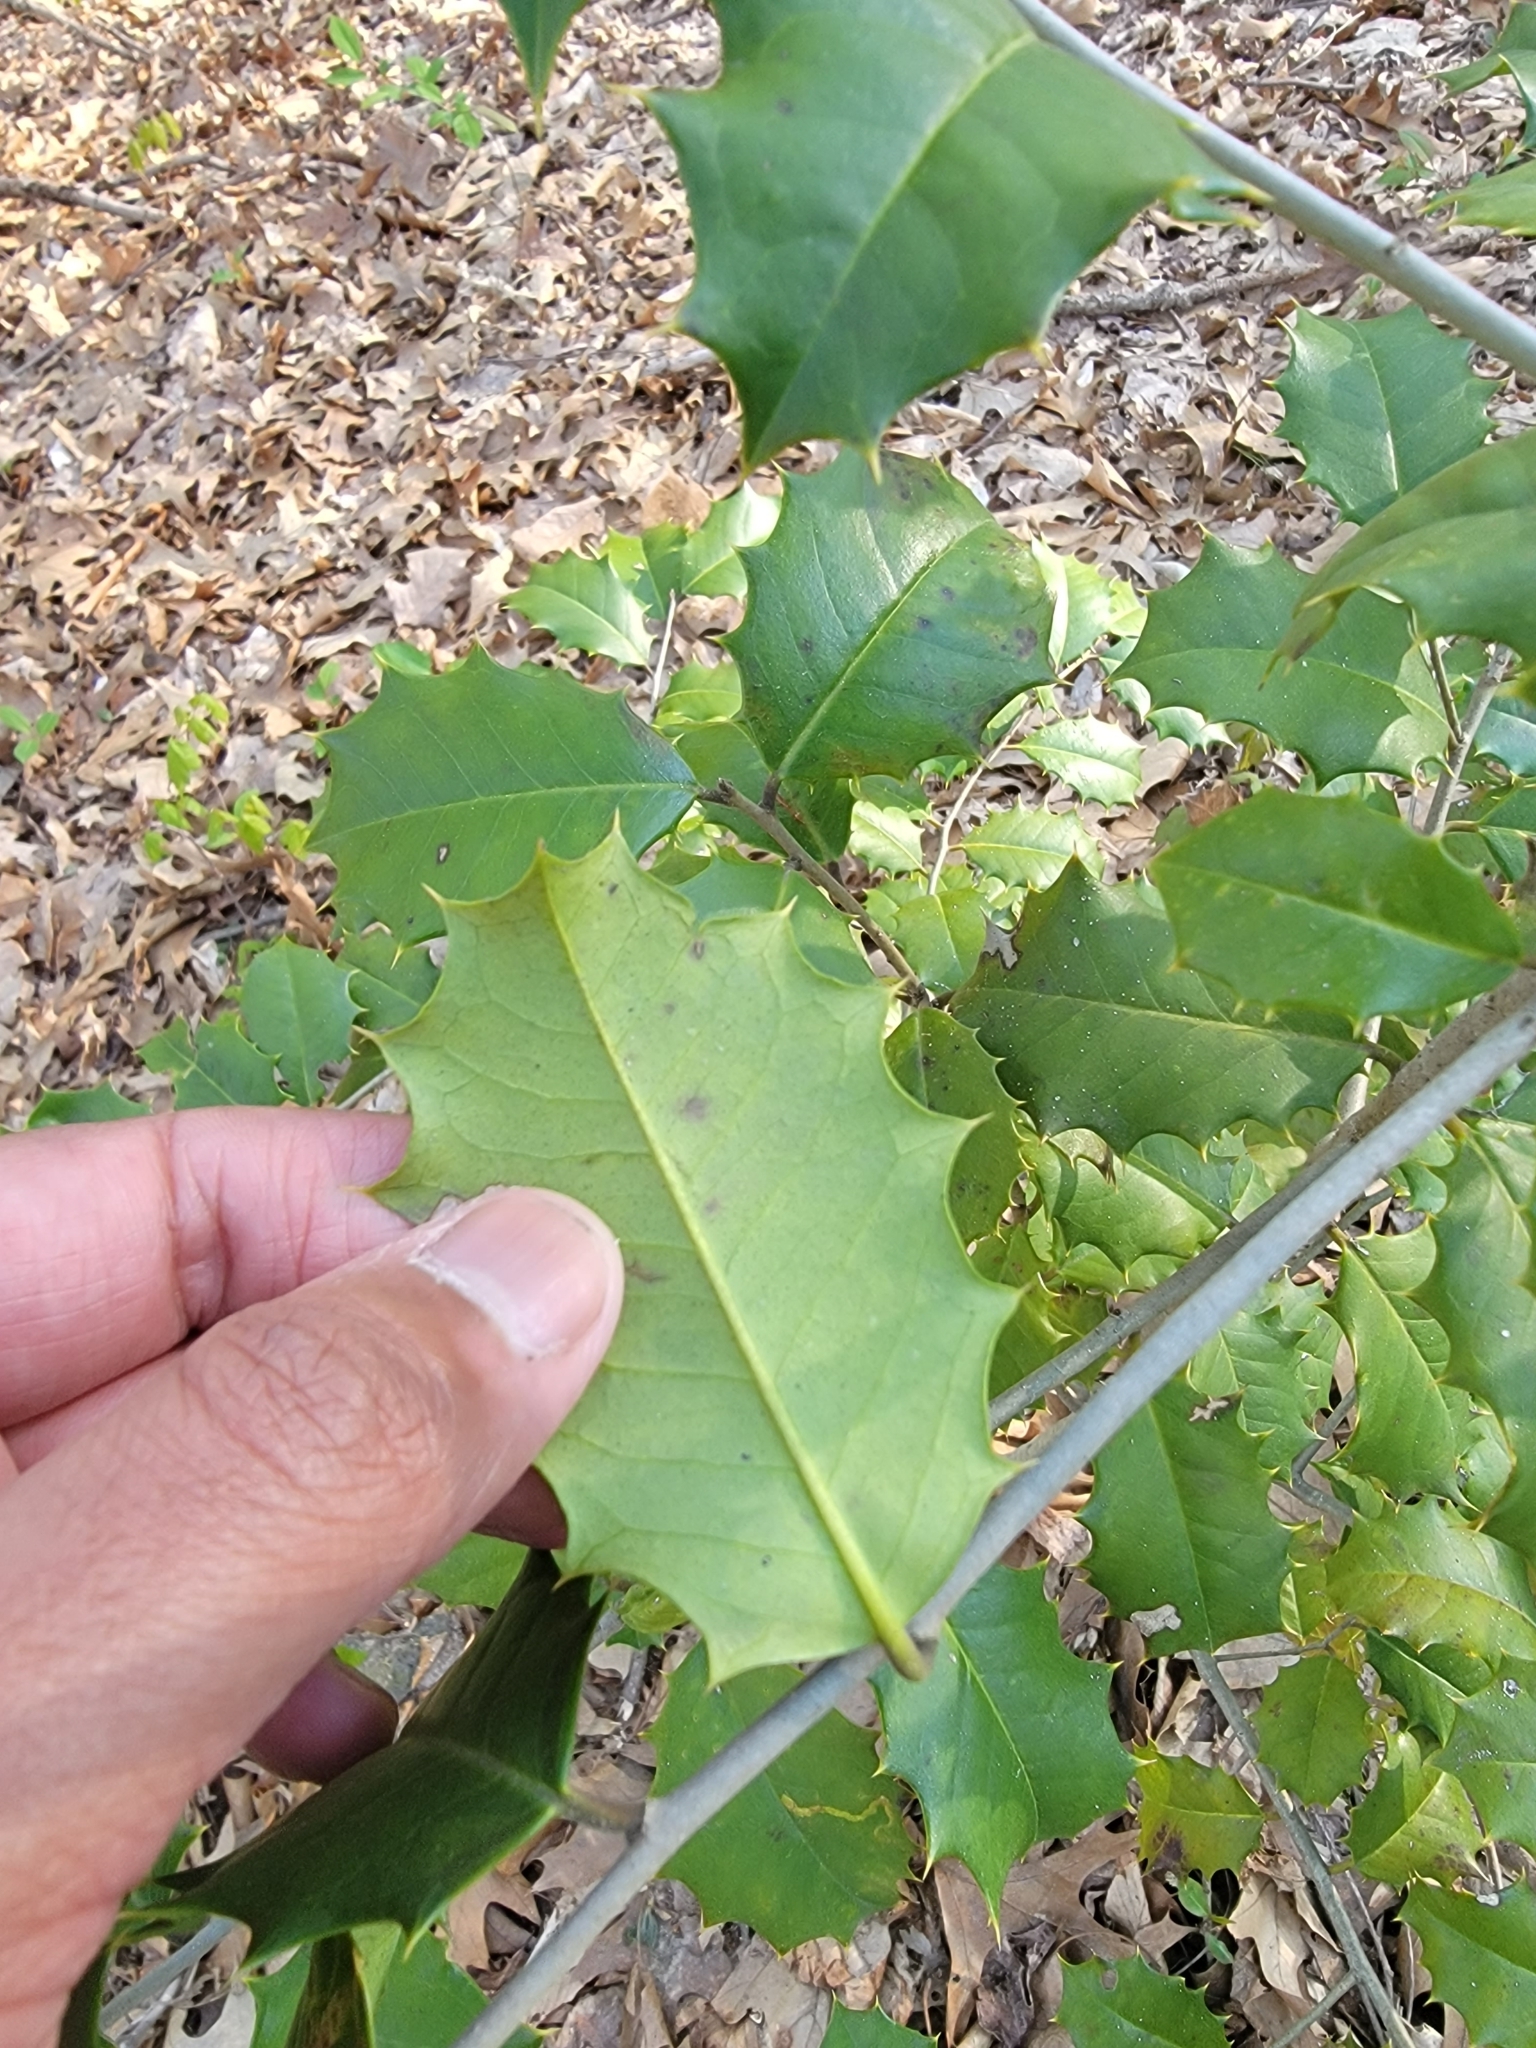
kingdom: Animalia
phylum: Arthropoda
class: Insecta
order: Diptera
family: Agromyzidae
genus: Phytomyza
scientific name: Phytomyza ilicicola
